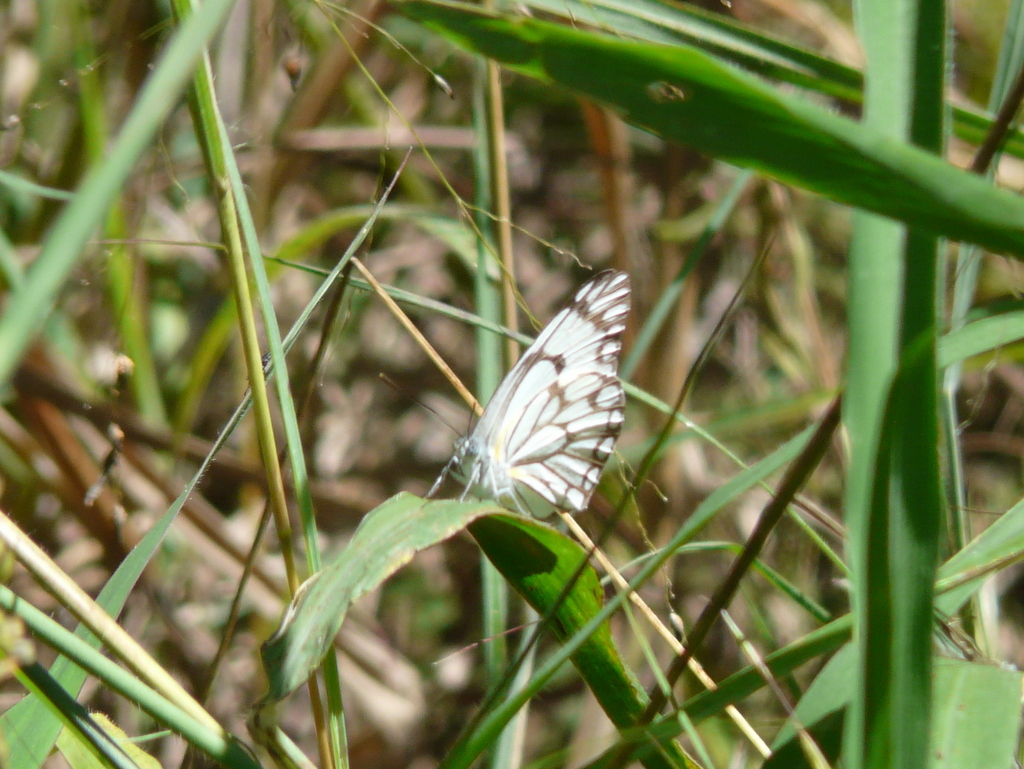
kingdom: Animalia
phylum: Arthropoda
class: Insecta
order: Lepidoptera
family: Pieridae
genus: Belenois
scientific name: Belenois aurota
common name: Brown-veined white
